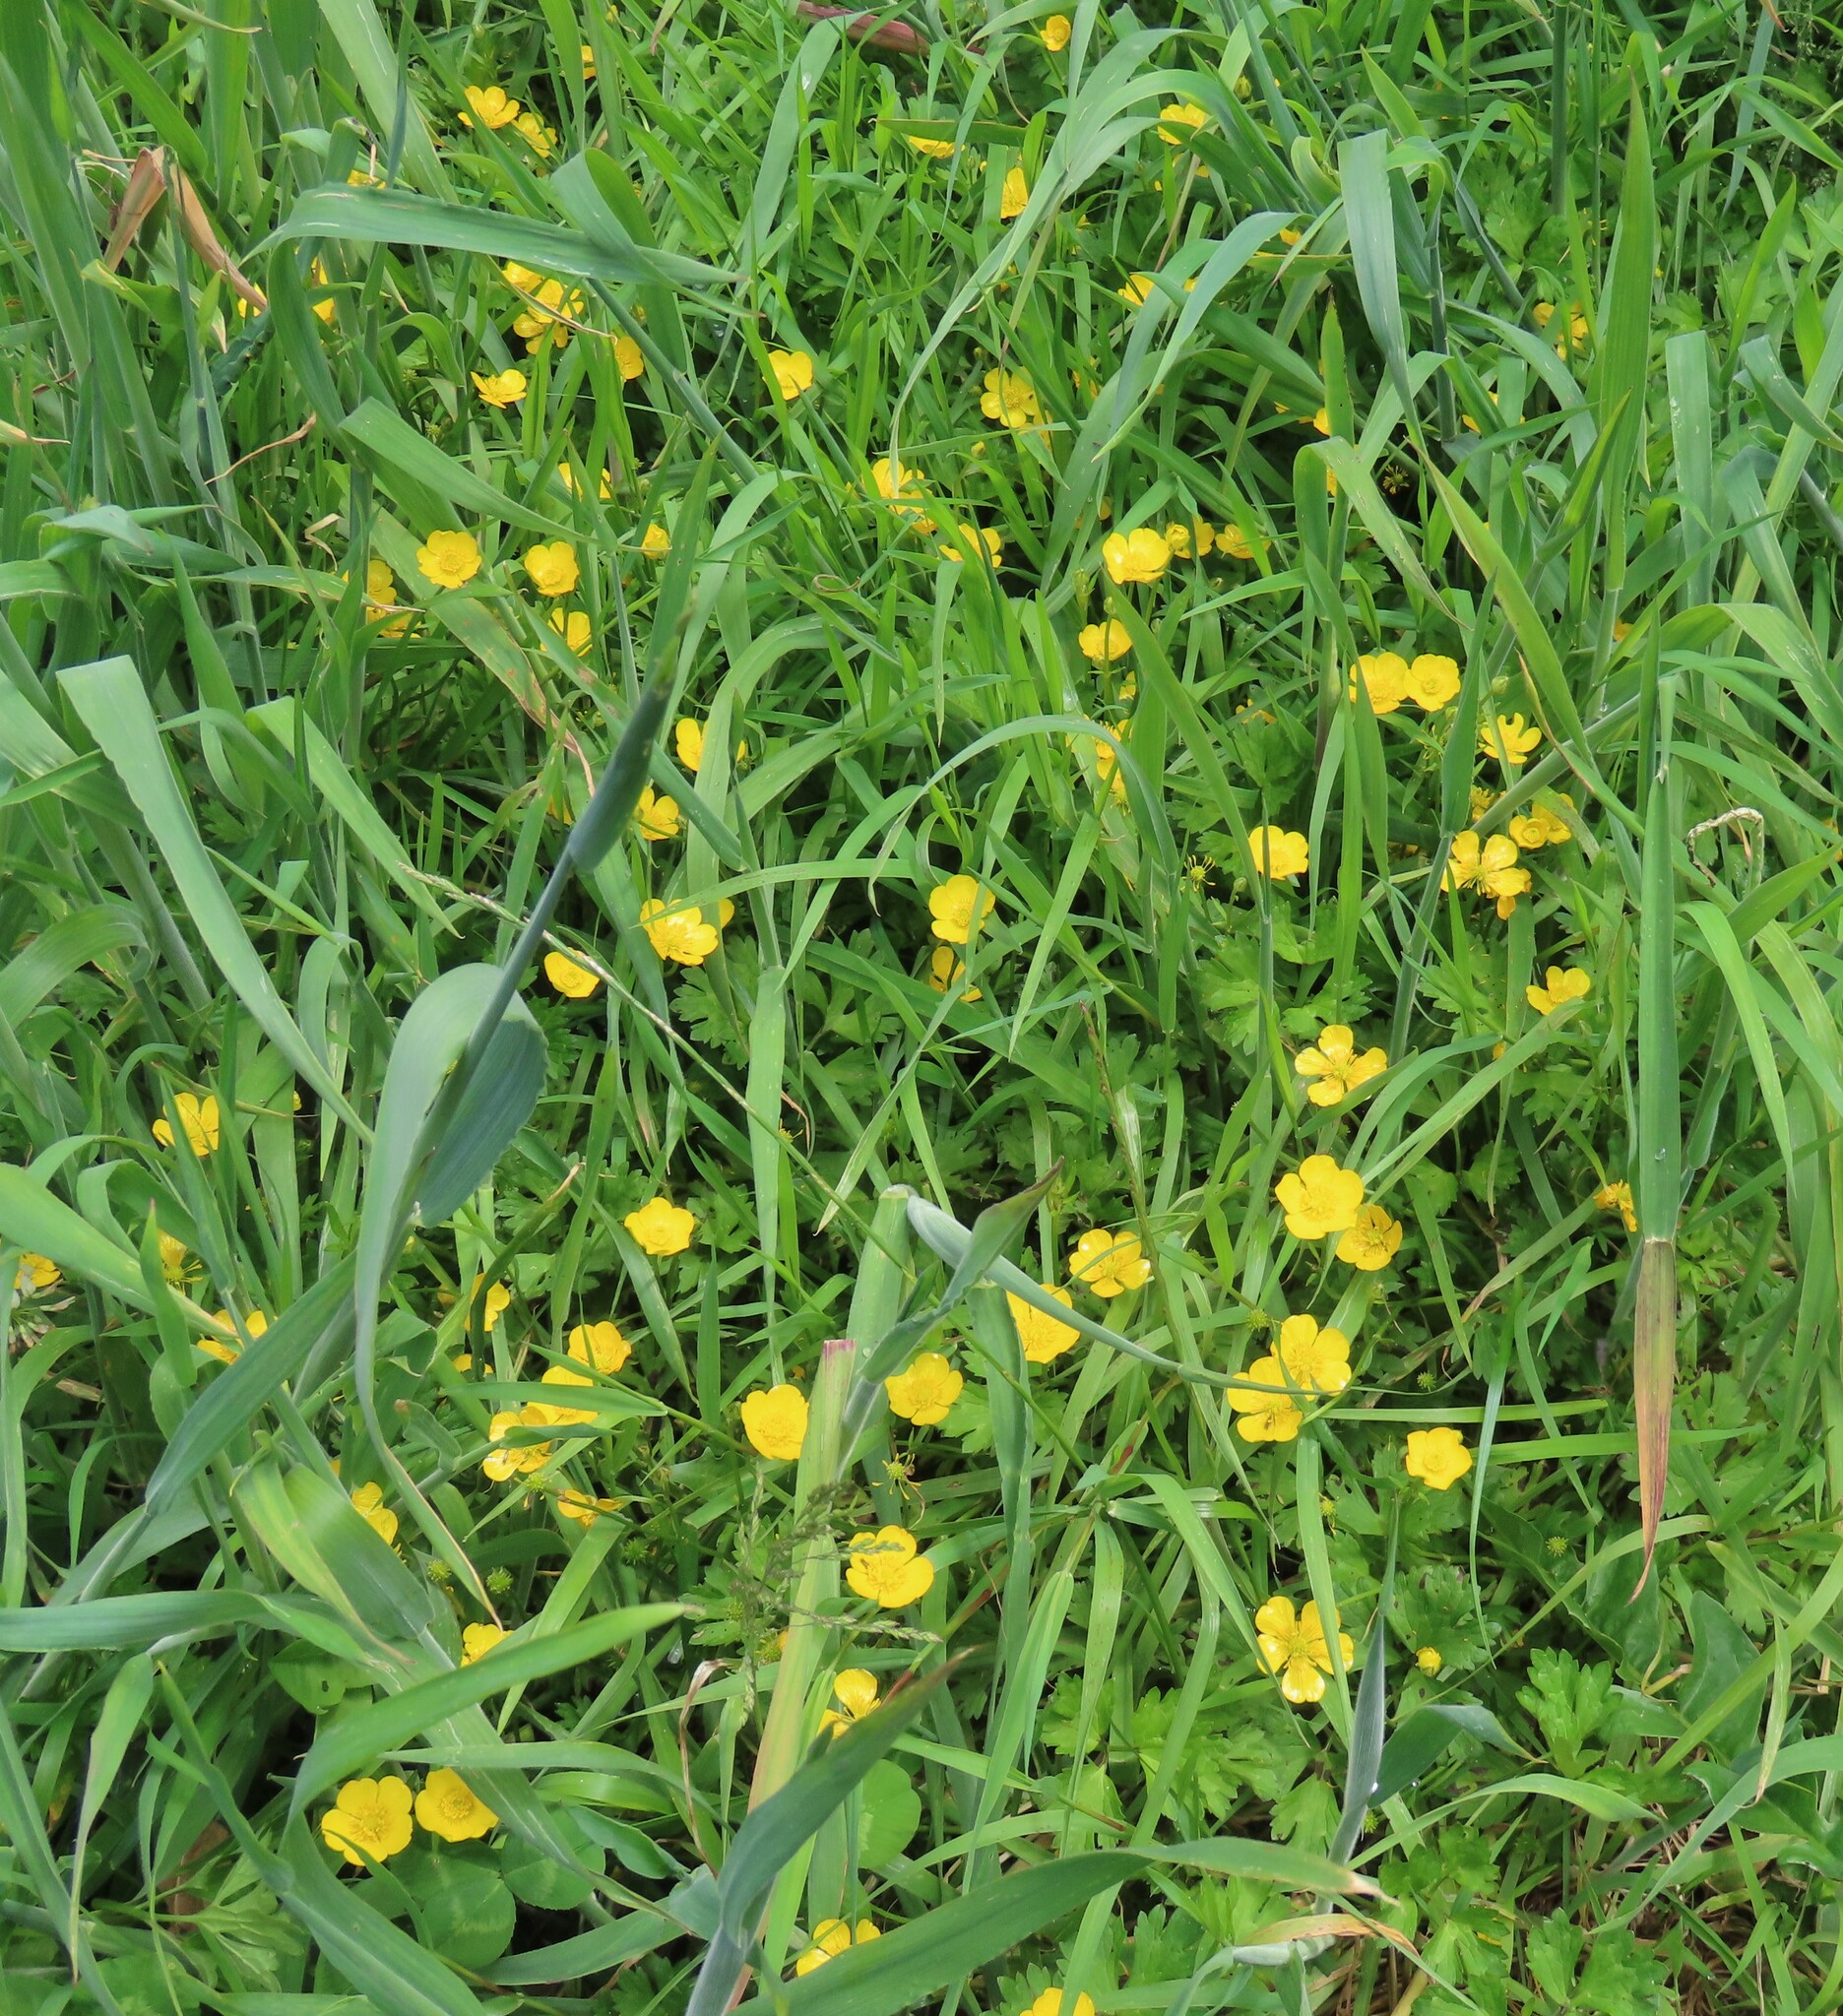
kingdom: Plantae
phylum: Tracheophyta
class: Magnoliopsida
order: Ranunculales
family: Ranunculaceae
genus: Ranunculus
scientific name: Ranunculus repens
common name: Creeping buttercup
